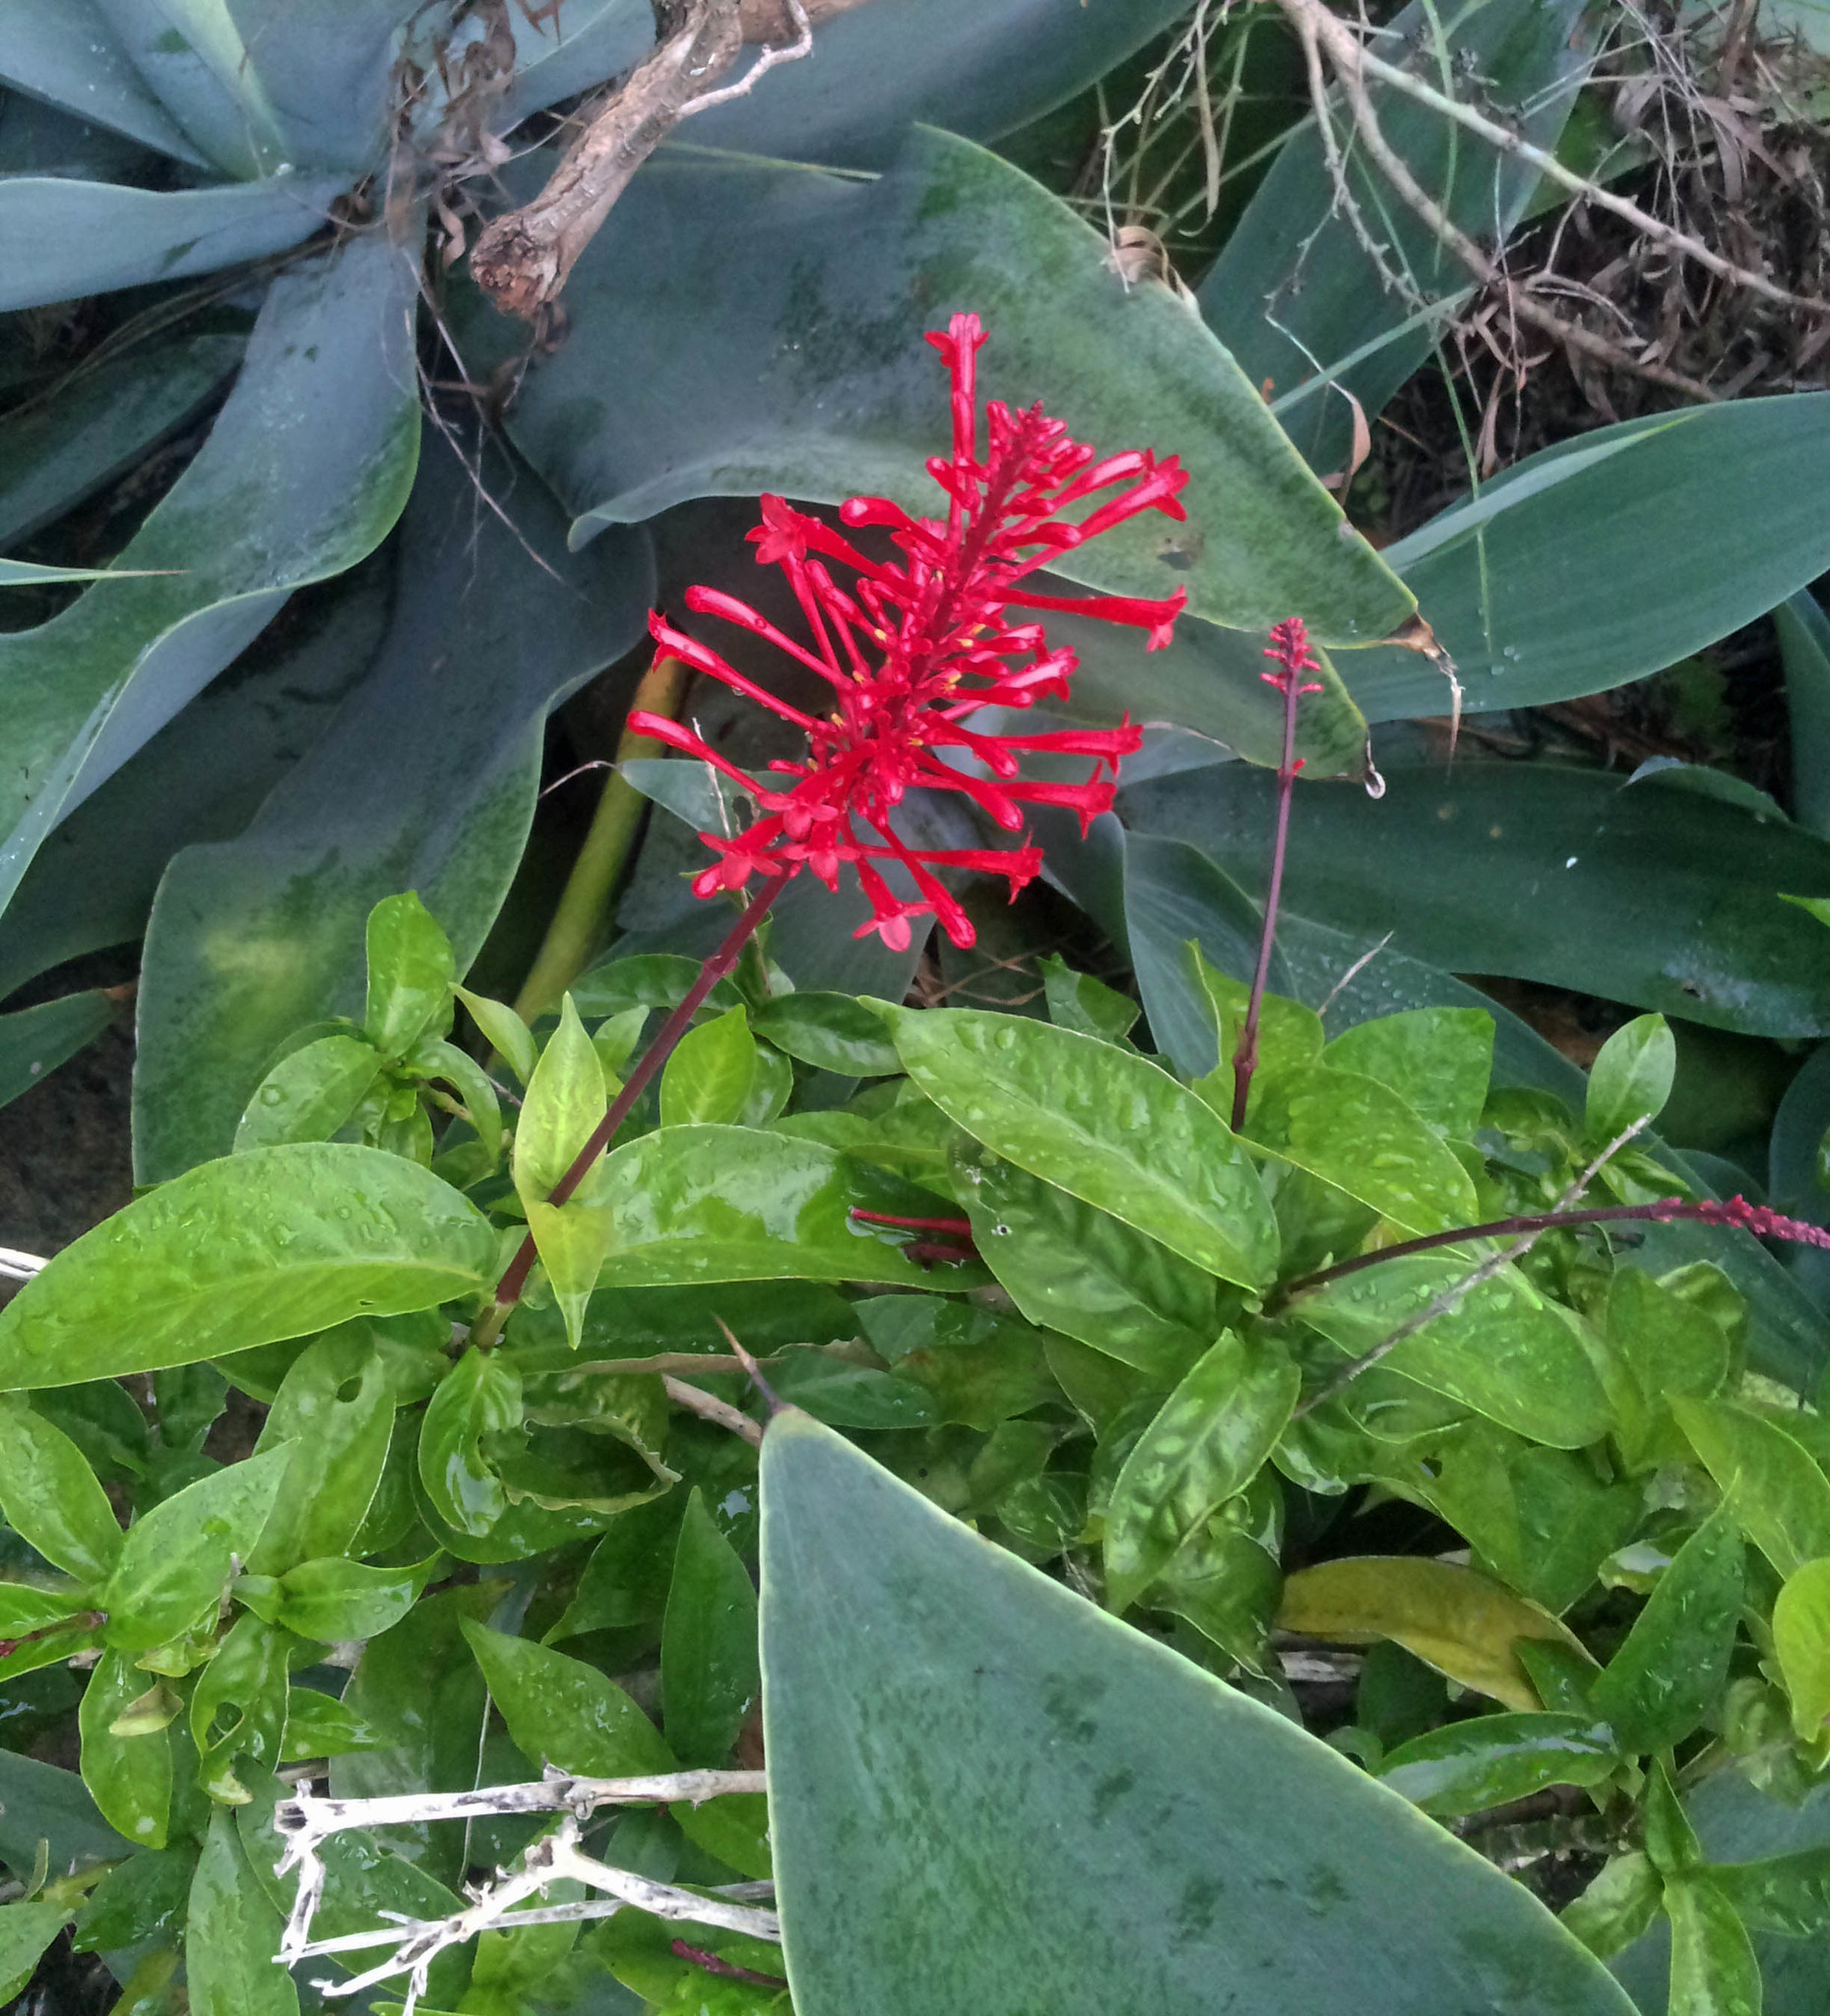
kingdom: Plantae
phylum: Tracheophyta
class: Magnoliopsida
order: Lamiales
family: Acanthaceae
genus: Odontonema
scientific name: Odontonema tubaeforme
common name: Firespike
